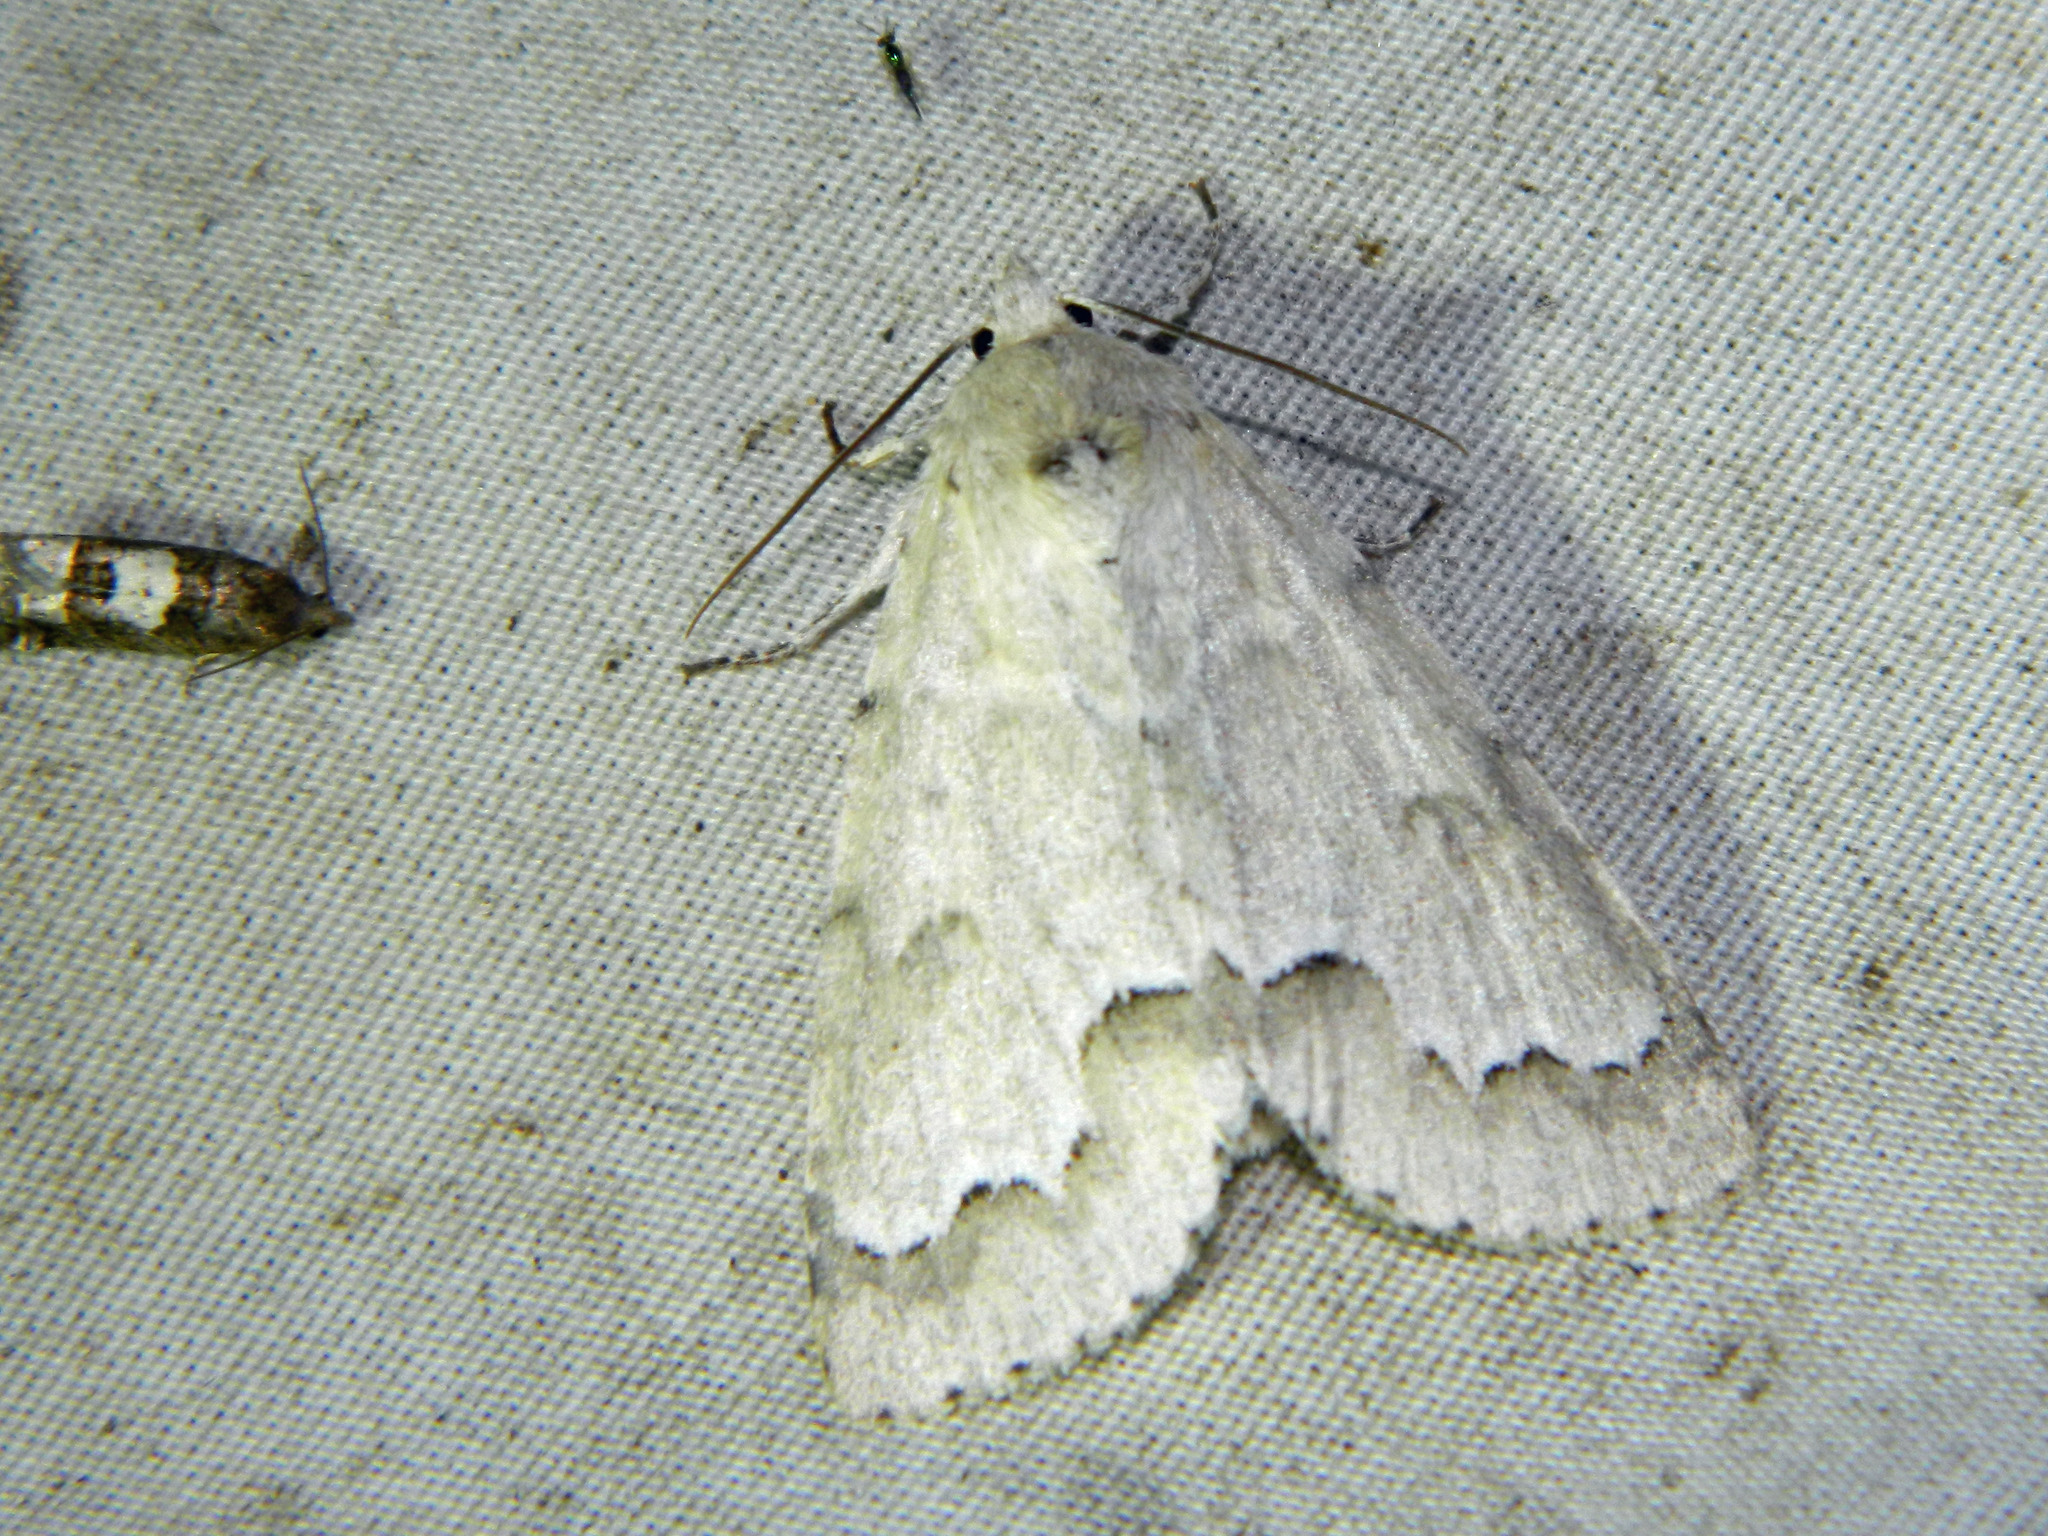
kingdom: Animalia
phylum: Arthropoda
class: Insecta
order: Lepidoptera
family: Noctuidae
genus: Acronicta
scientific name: Acronicta innotata
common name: Unmarked dagger
